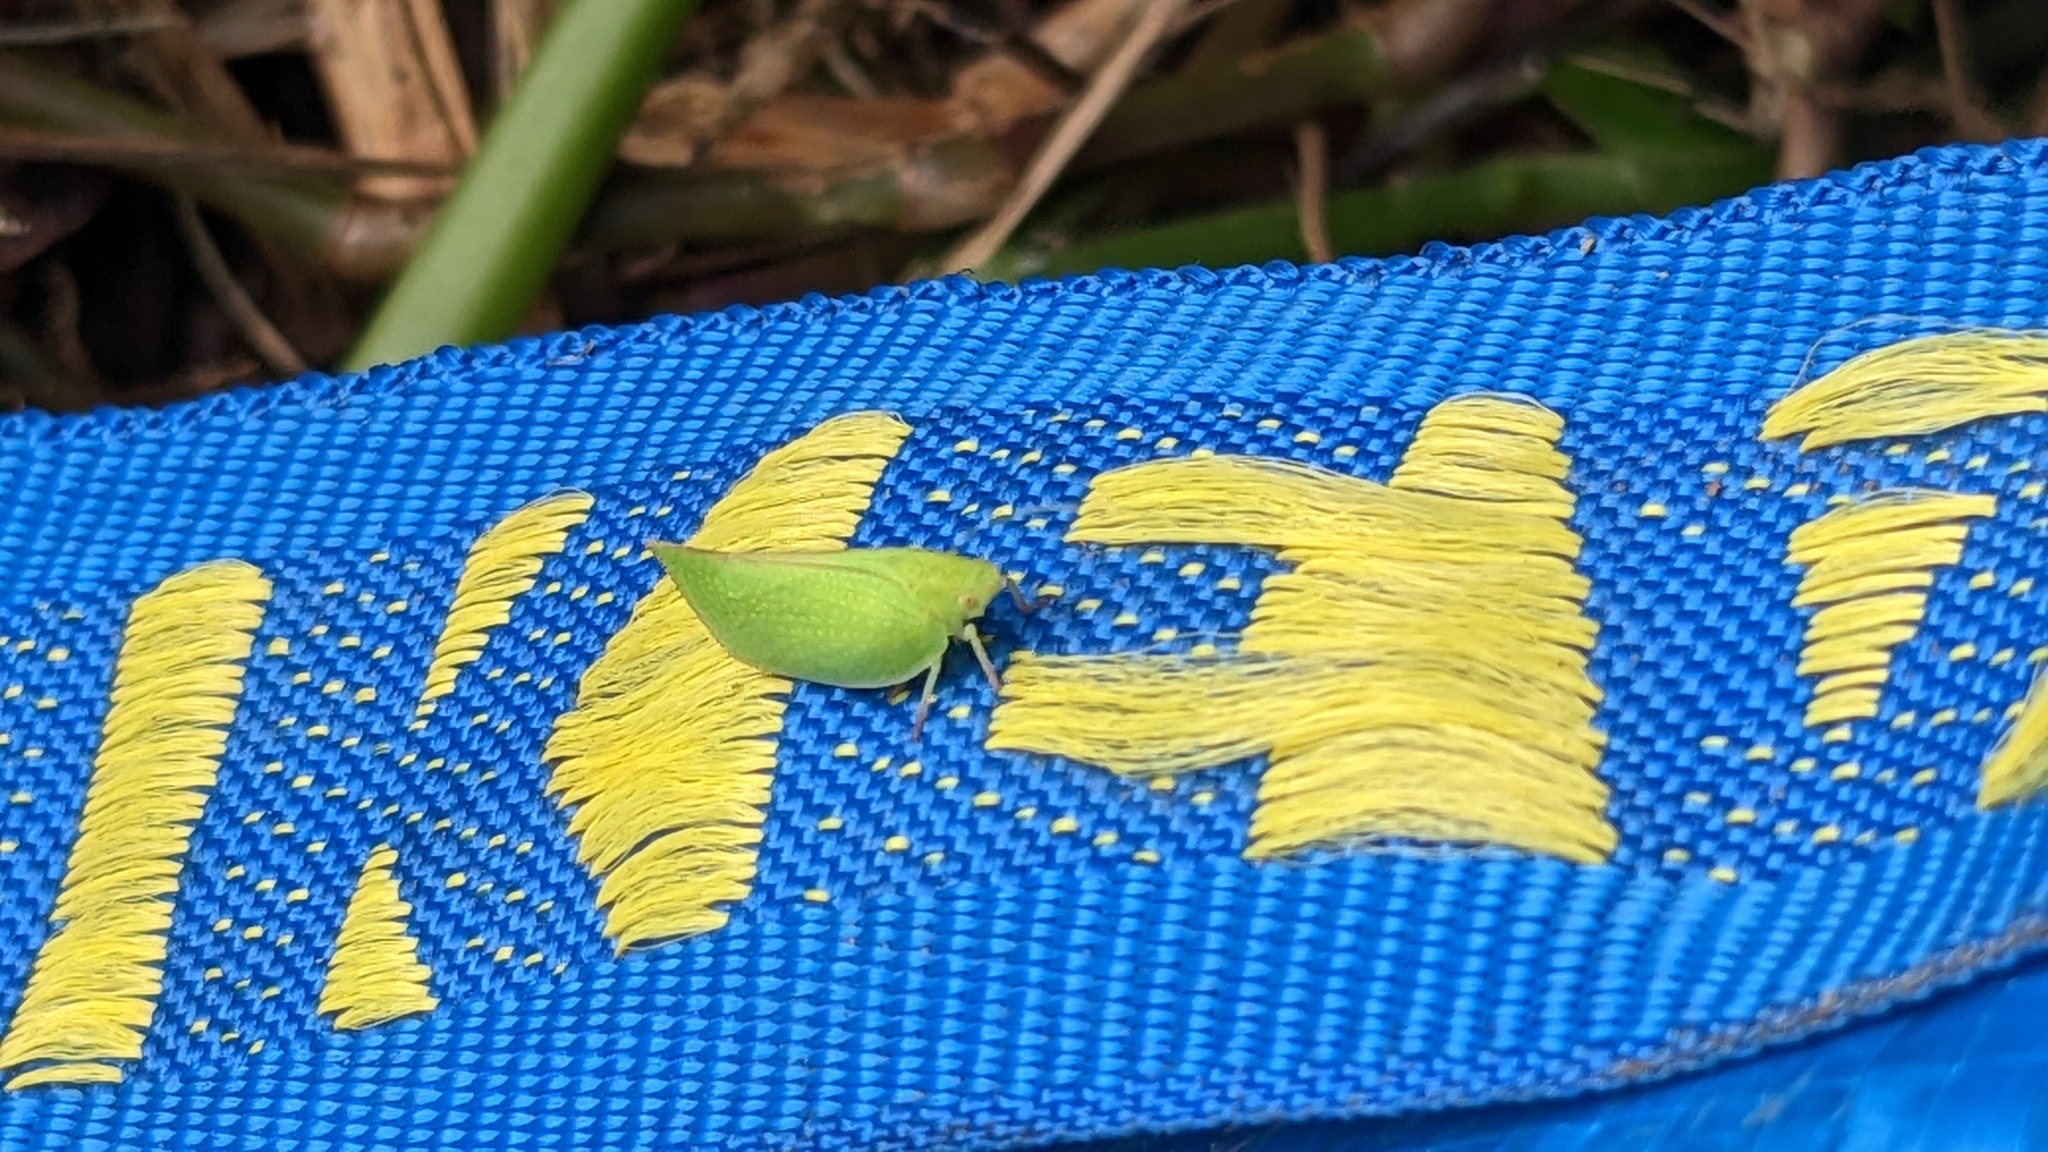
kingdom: Animalia
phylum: Arthropoda
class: Insecta
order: Hemiptera
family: Flatidae
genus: Siphanta
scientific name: Siphanta acuta
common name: Torpedo bug
